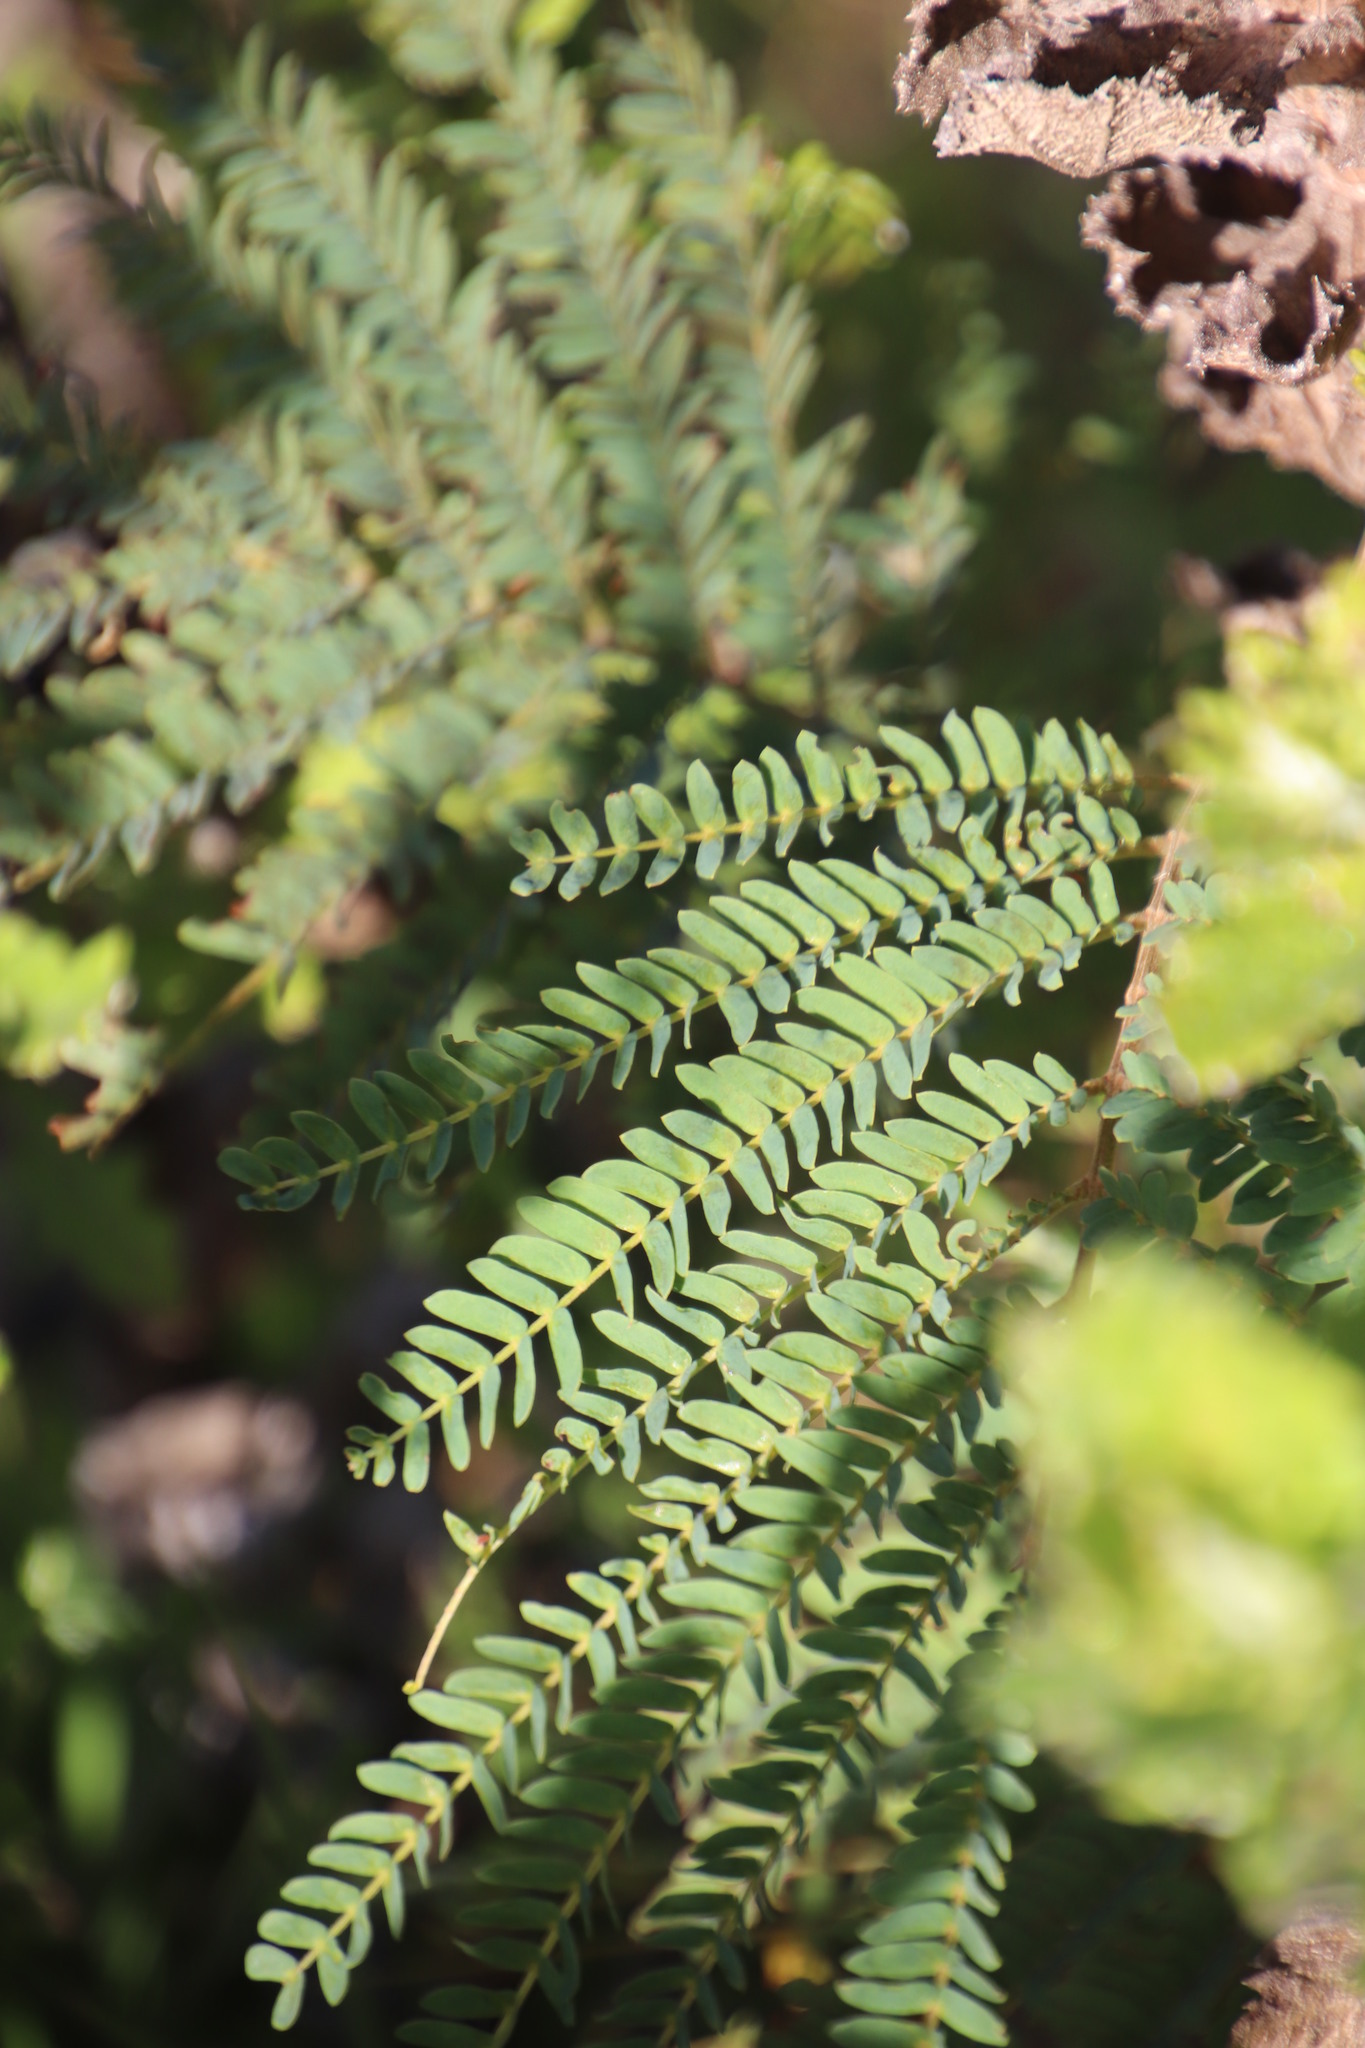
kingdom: Plantae
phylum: Tracheophyta
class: Magnoliopsida
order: Fabales
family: Fabaceae
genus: Paraserianthes
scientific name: Paraserianthes lophantha
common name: Plume albizia
